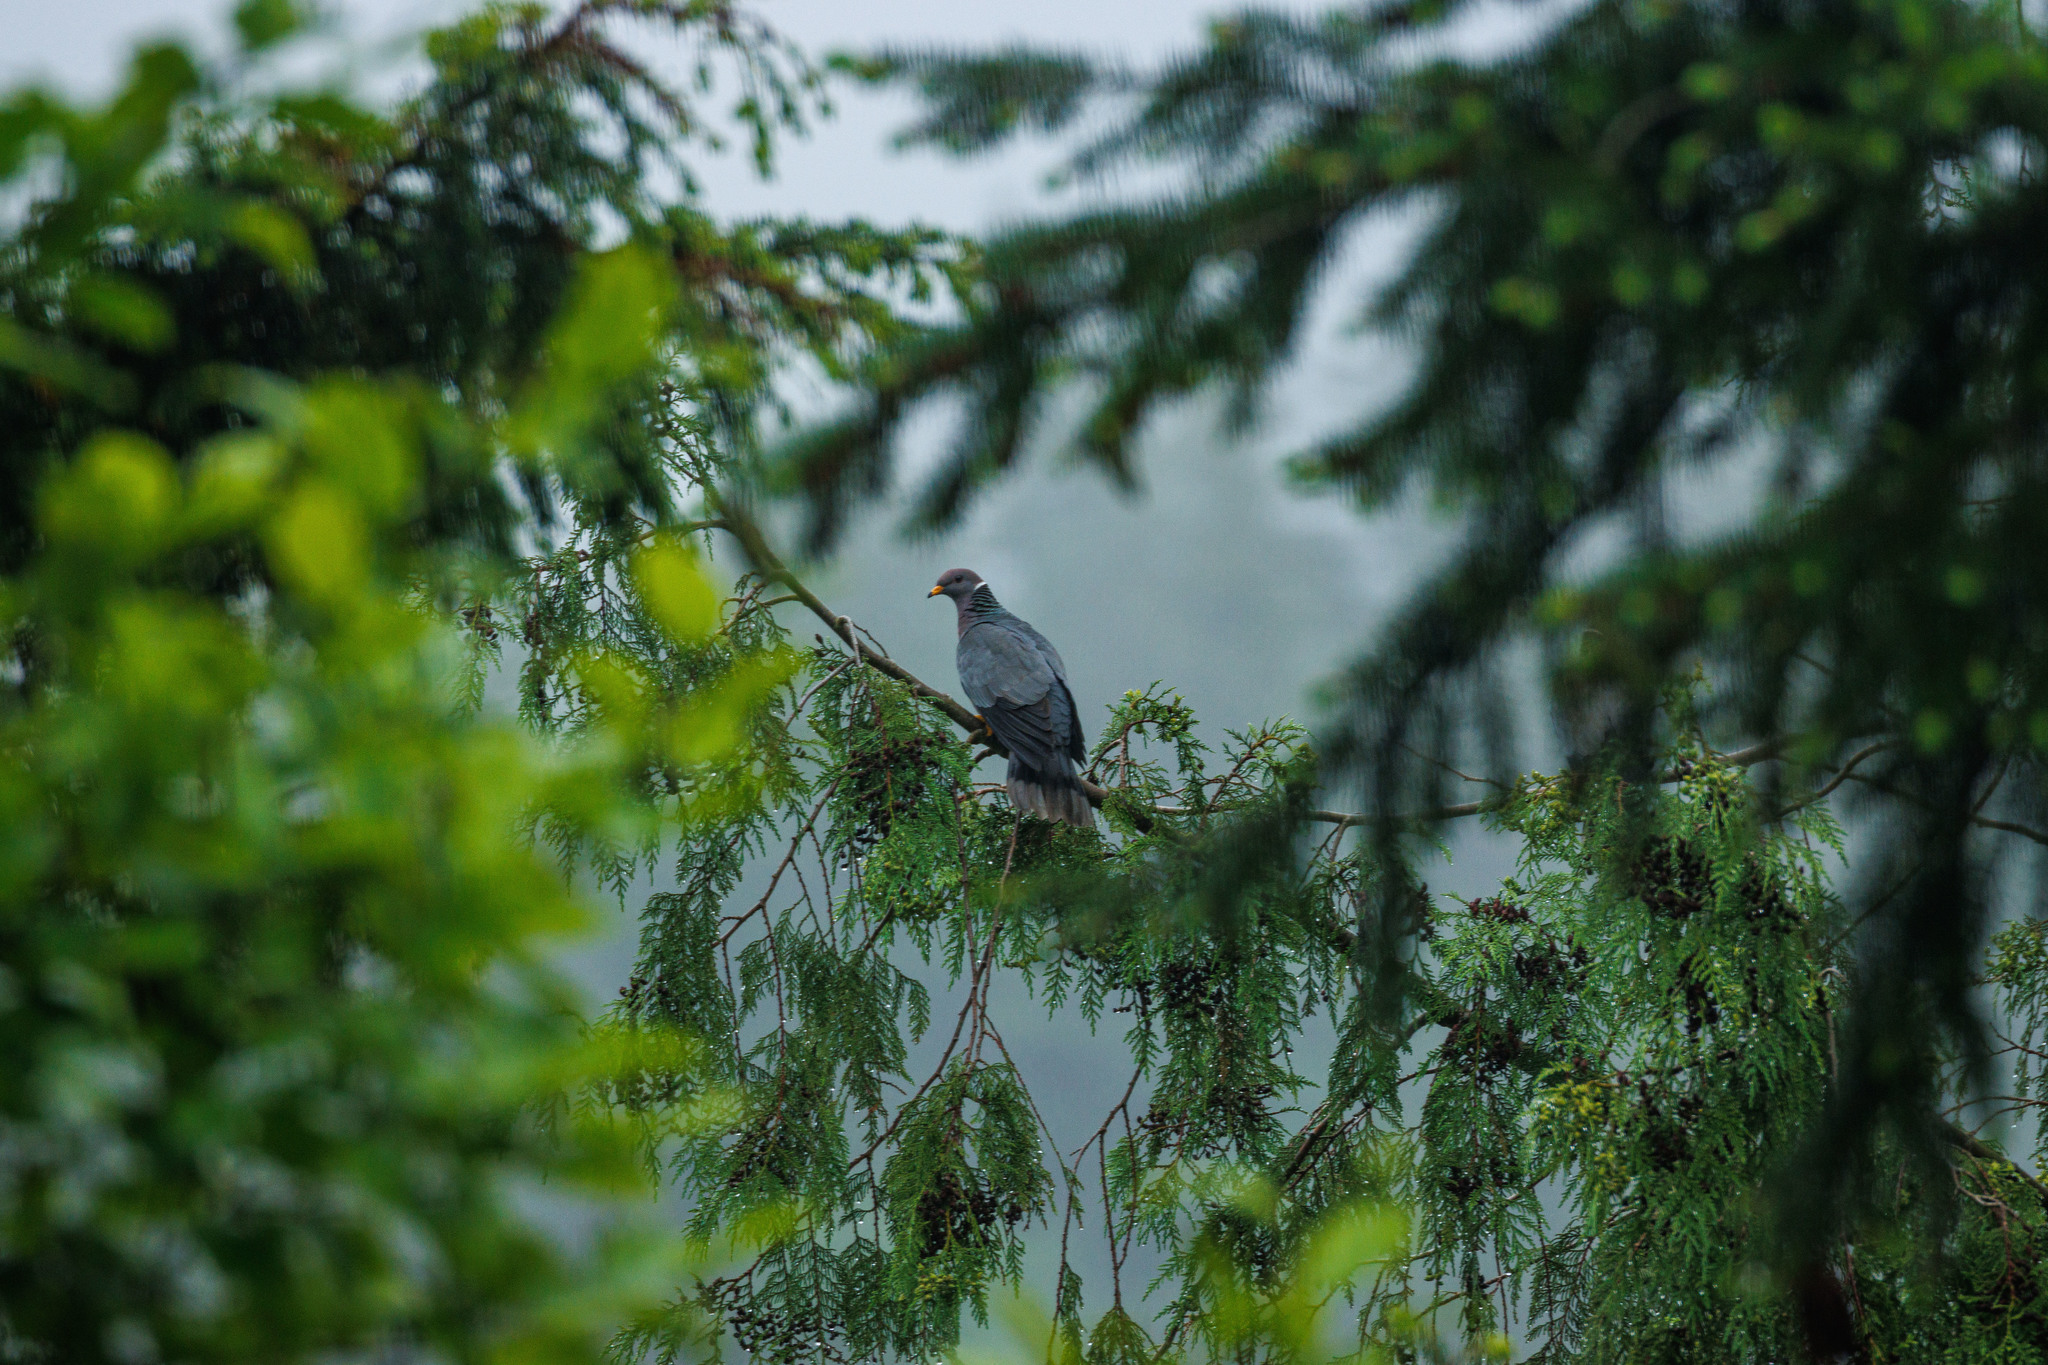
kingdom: Animalia
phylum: Chordata
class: Aves
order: Columbiformes
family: Columbidae
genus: Patagioenas
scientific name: Patagioenas fasciata
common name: Band-tailed pigeon
